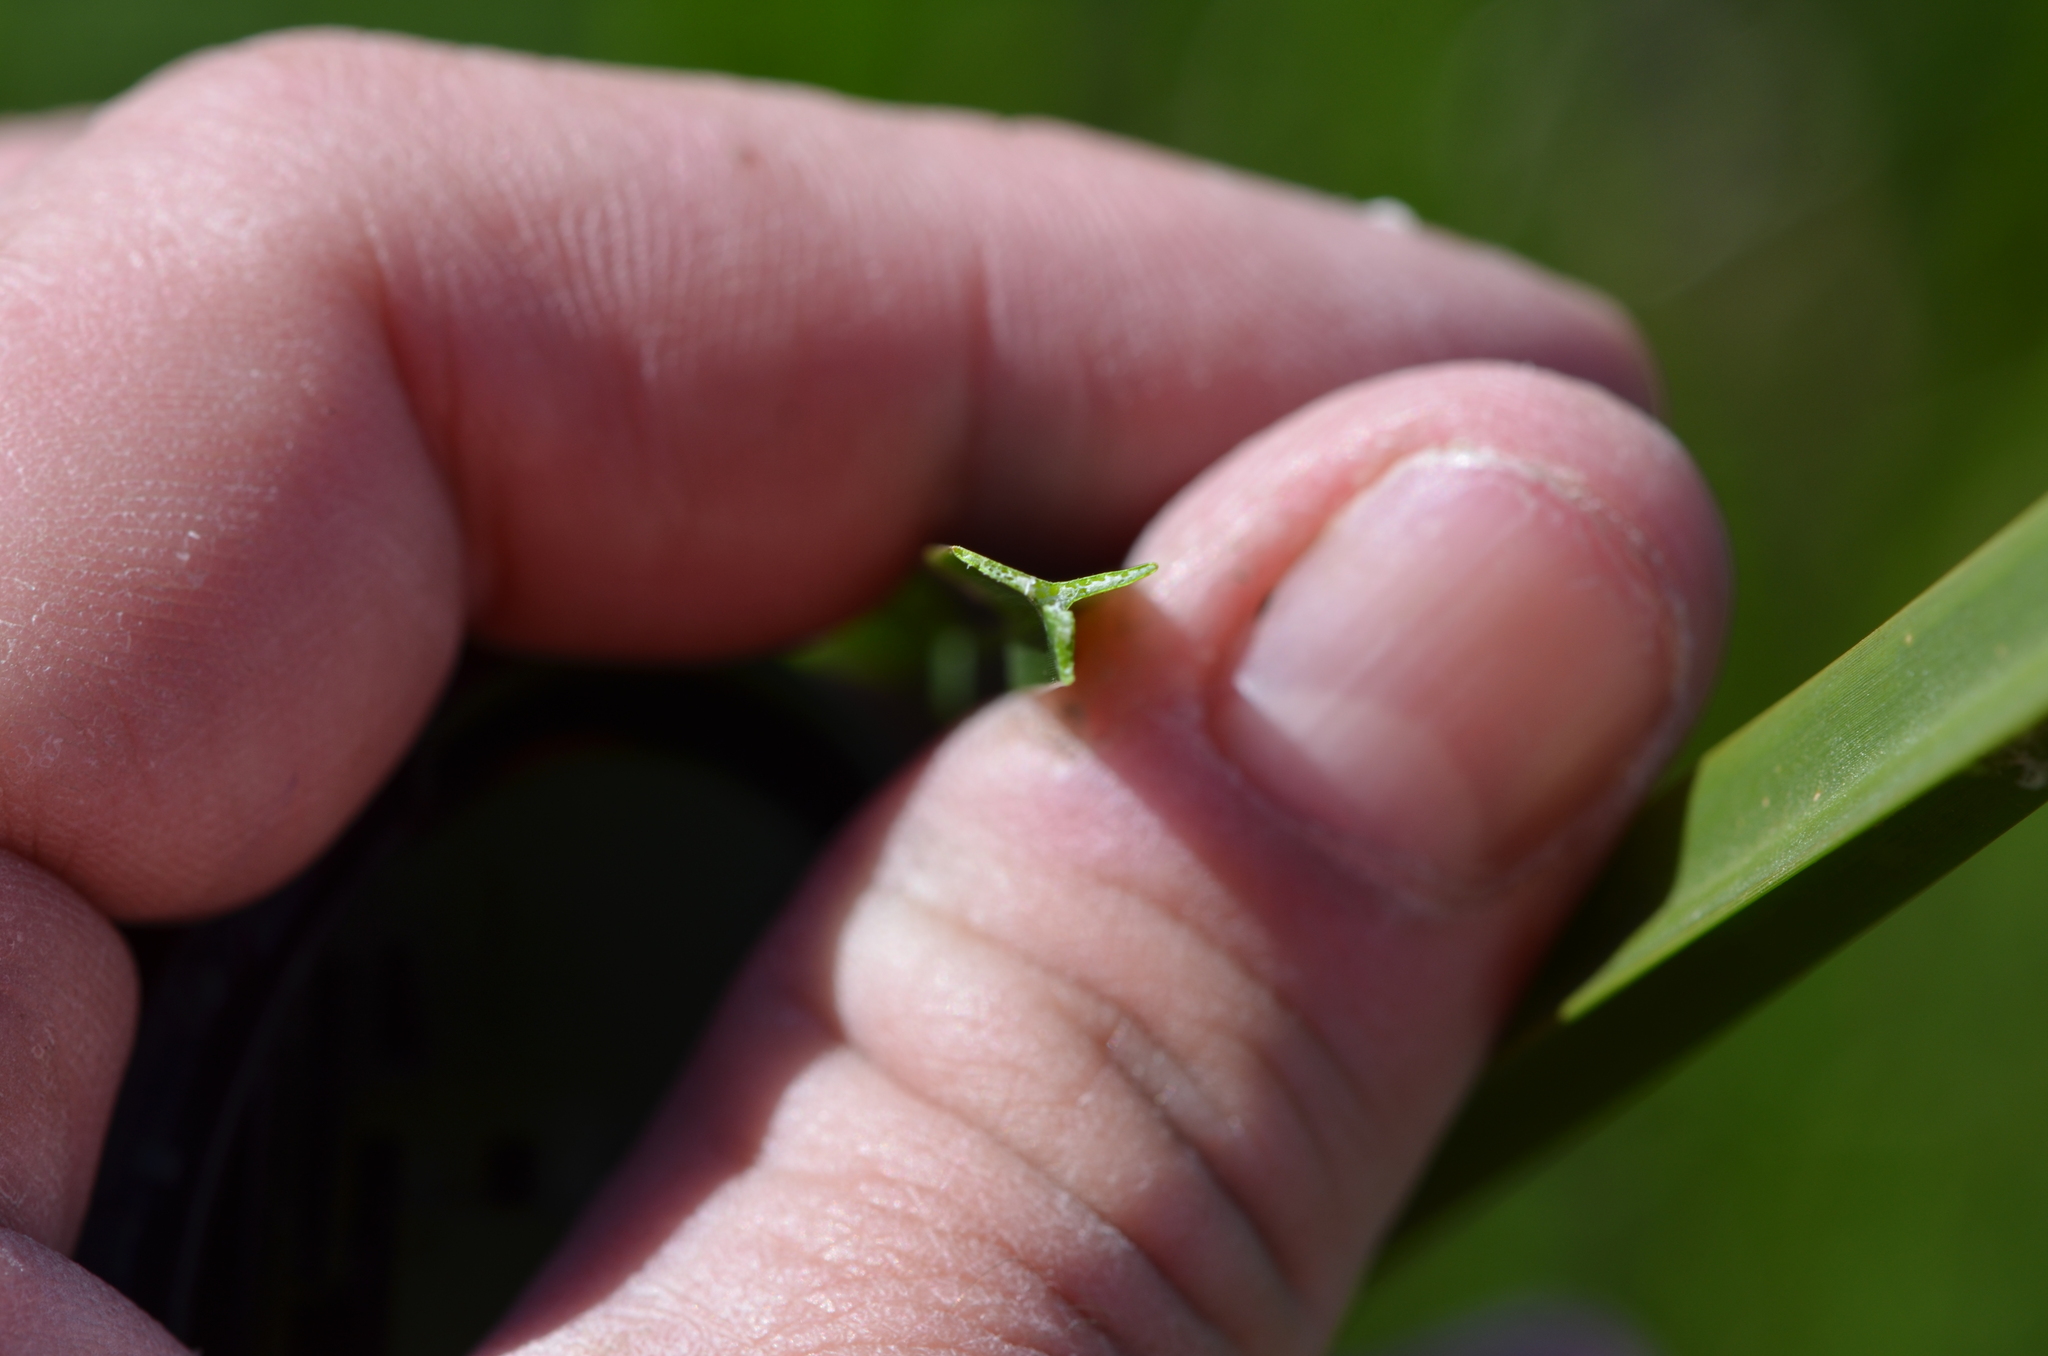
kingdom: Plantae
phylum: Tracheophyta
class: Liliopsida
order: Poales
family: Cyperaceae
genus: Schoenoplectus
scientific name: Schoenoplectus americanus
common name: American three-square bulrush
